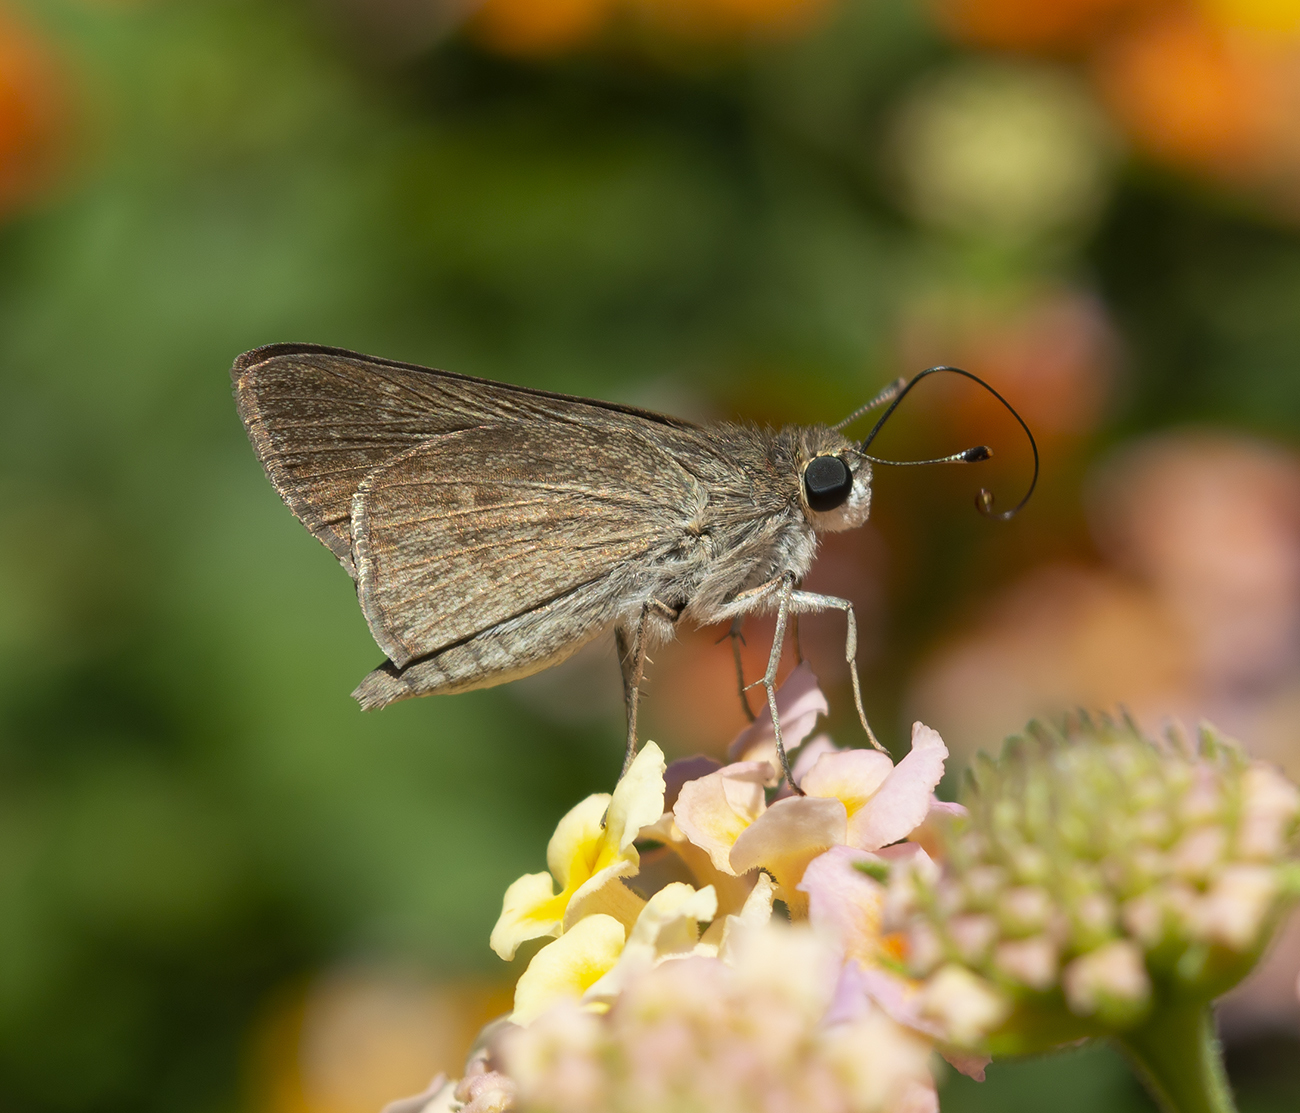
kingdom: Animalia
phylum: Arthropoda
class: Insecta
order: Lepidoptera
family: Hesperiidae
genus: Gegenes
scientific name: Gegenes pumilio
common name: Pigmy skipper
